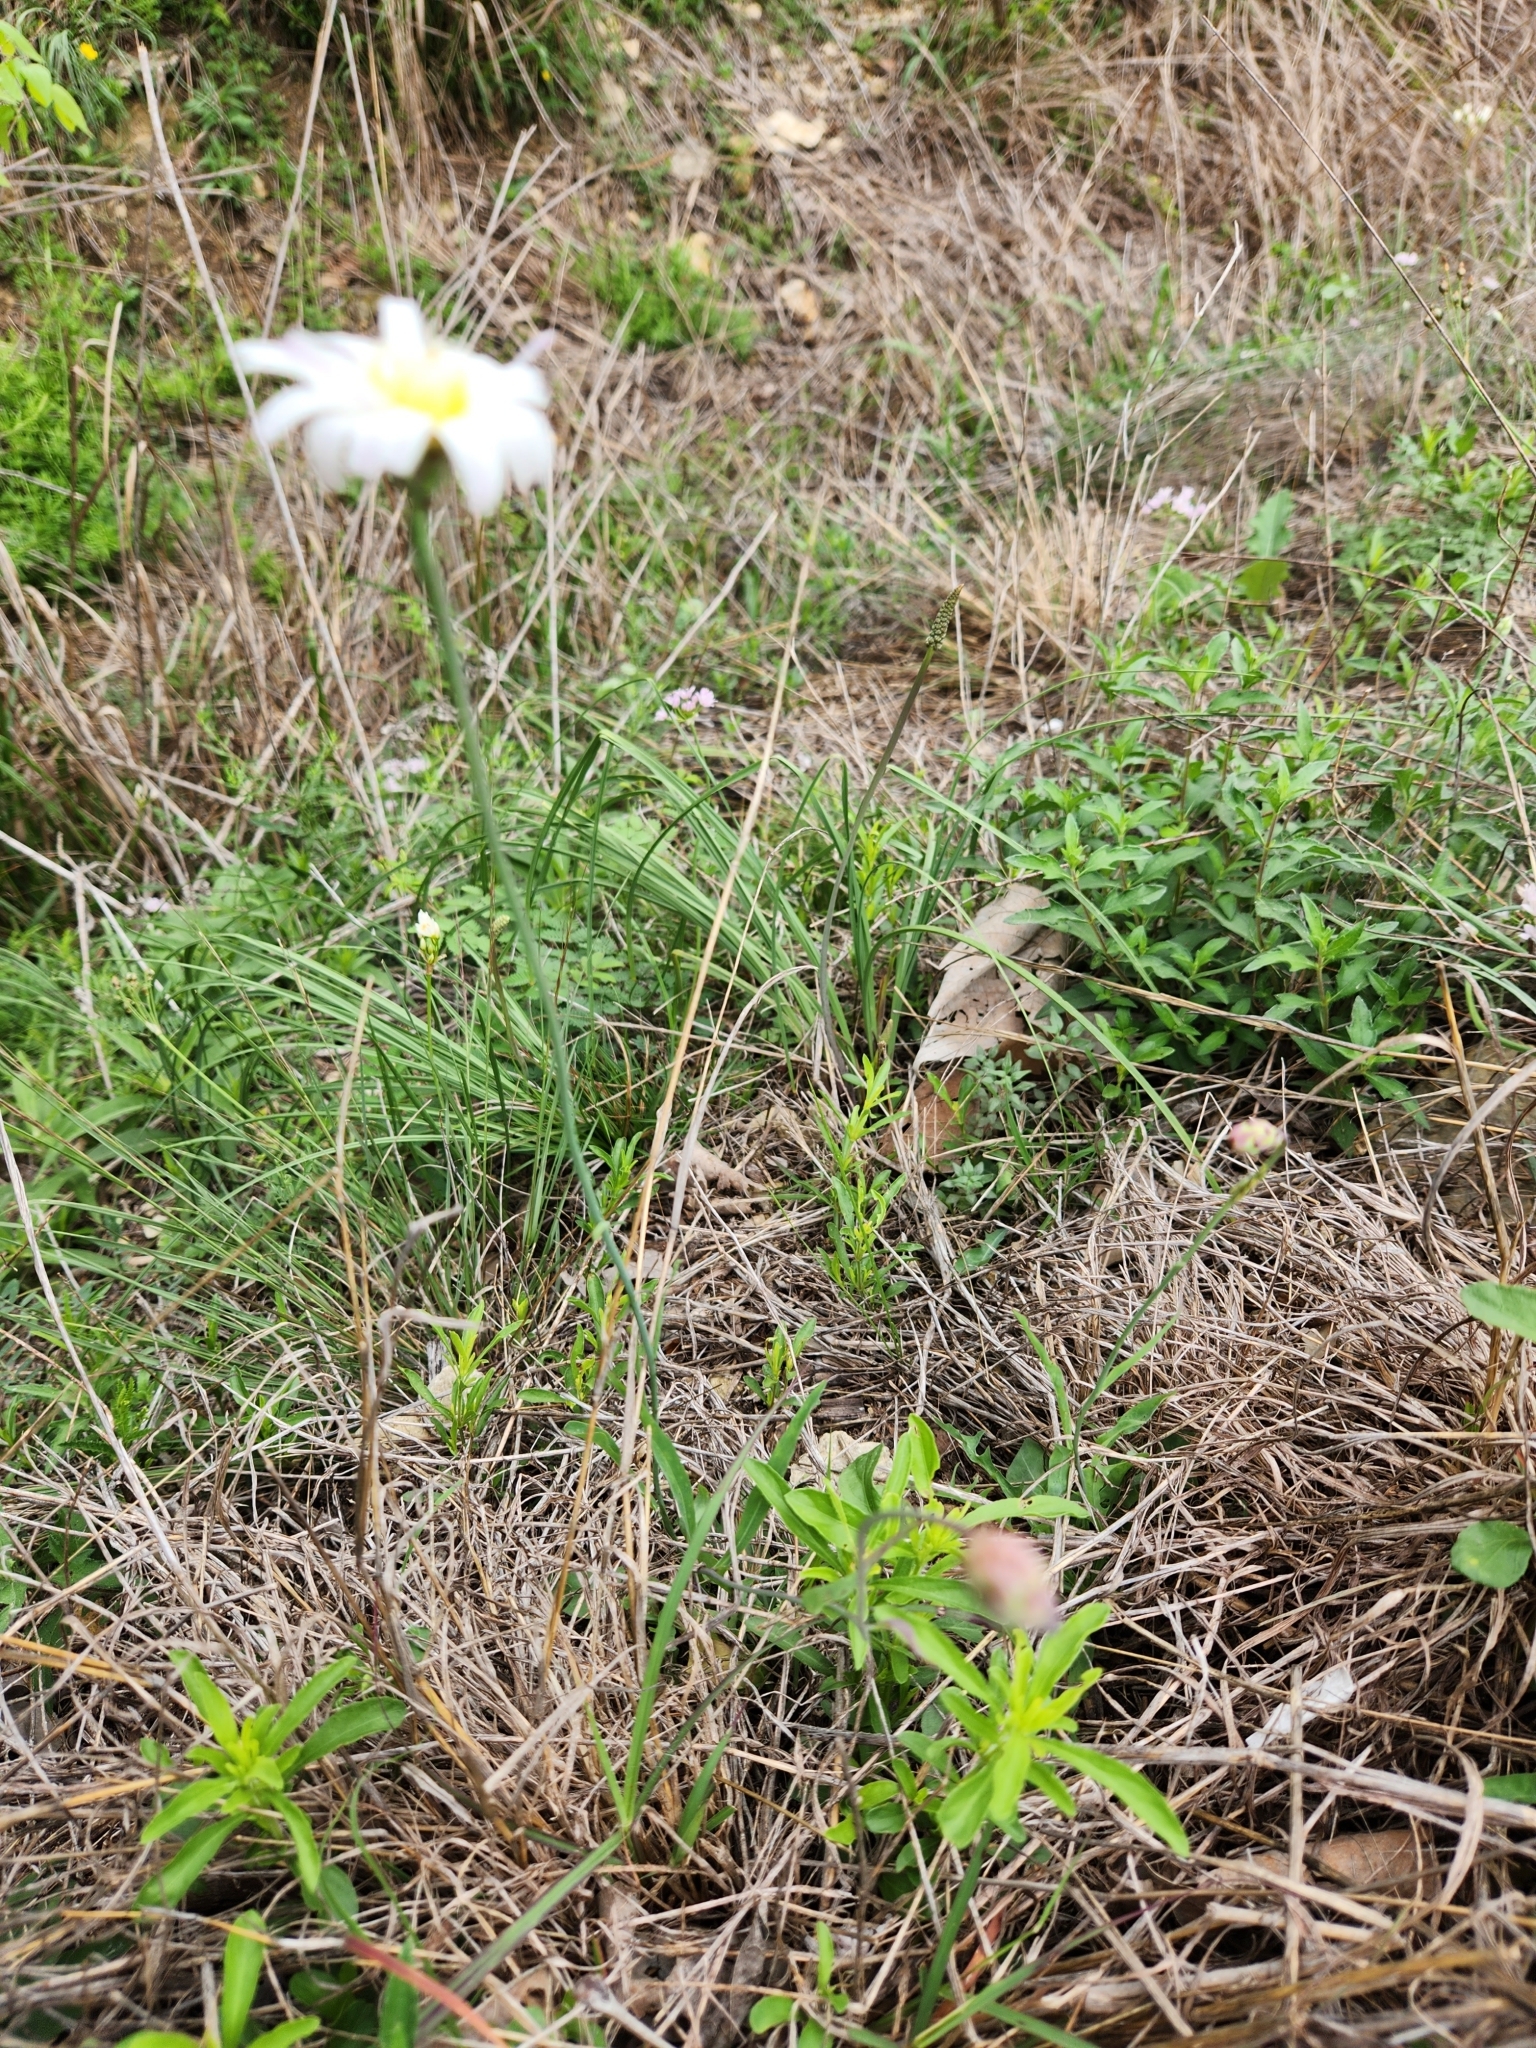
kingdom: Plantae
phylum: Tracheophyta
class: Magnoliopsida
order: Asterales
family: Asteraceae
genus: Pinaropappus
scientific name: Pinaropappus roseus
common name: Rock-lettuce
